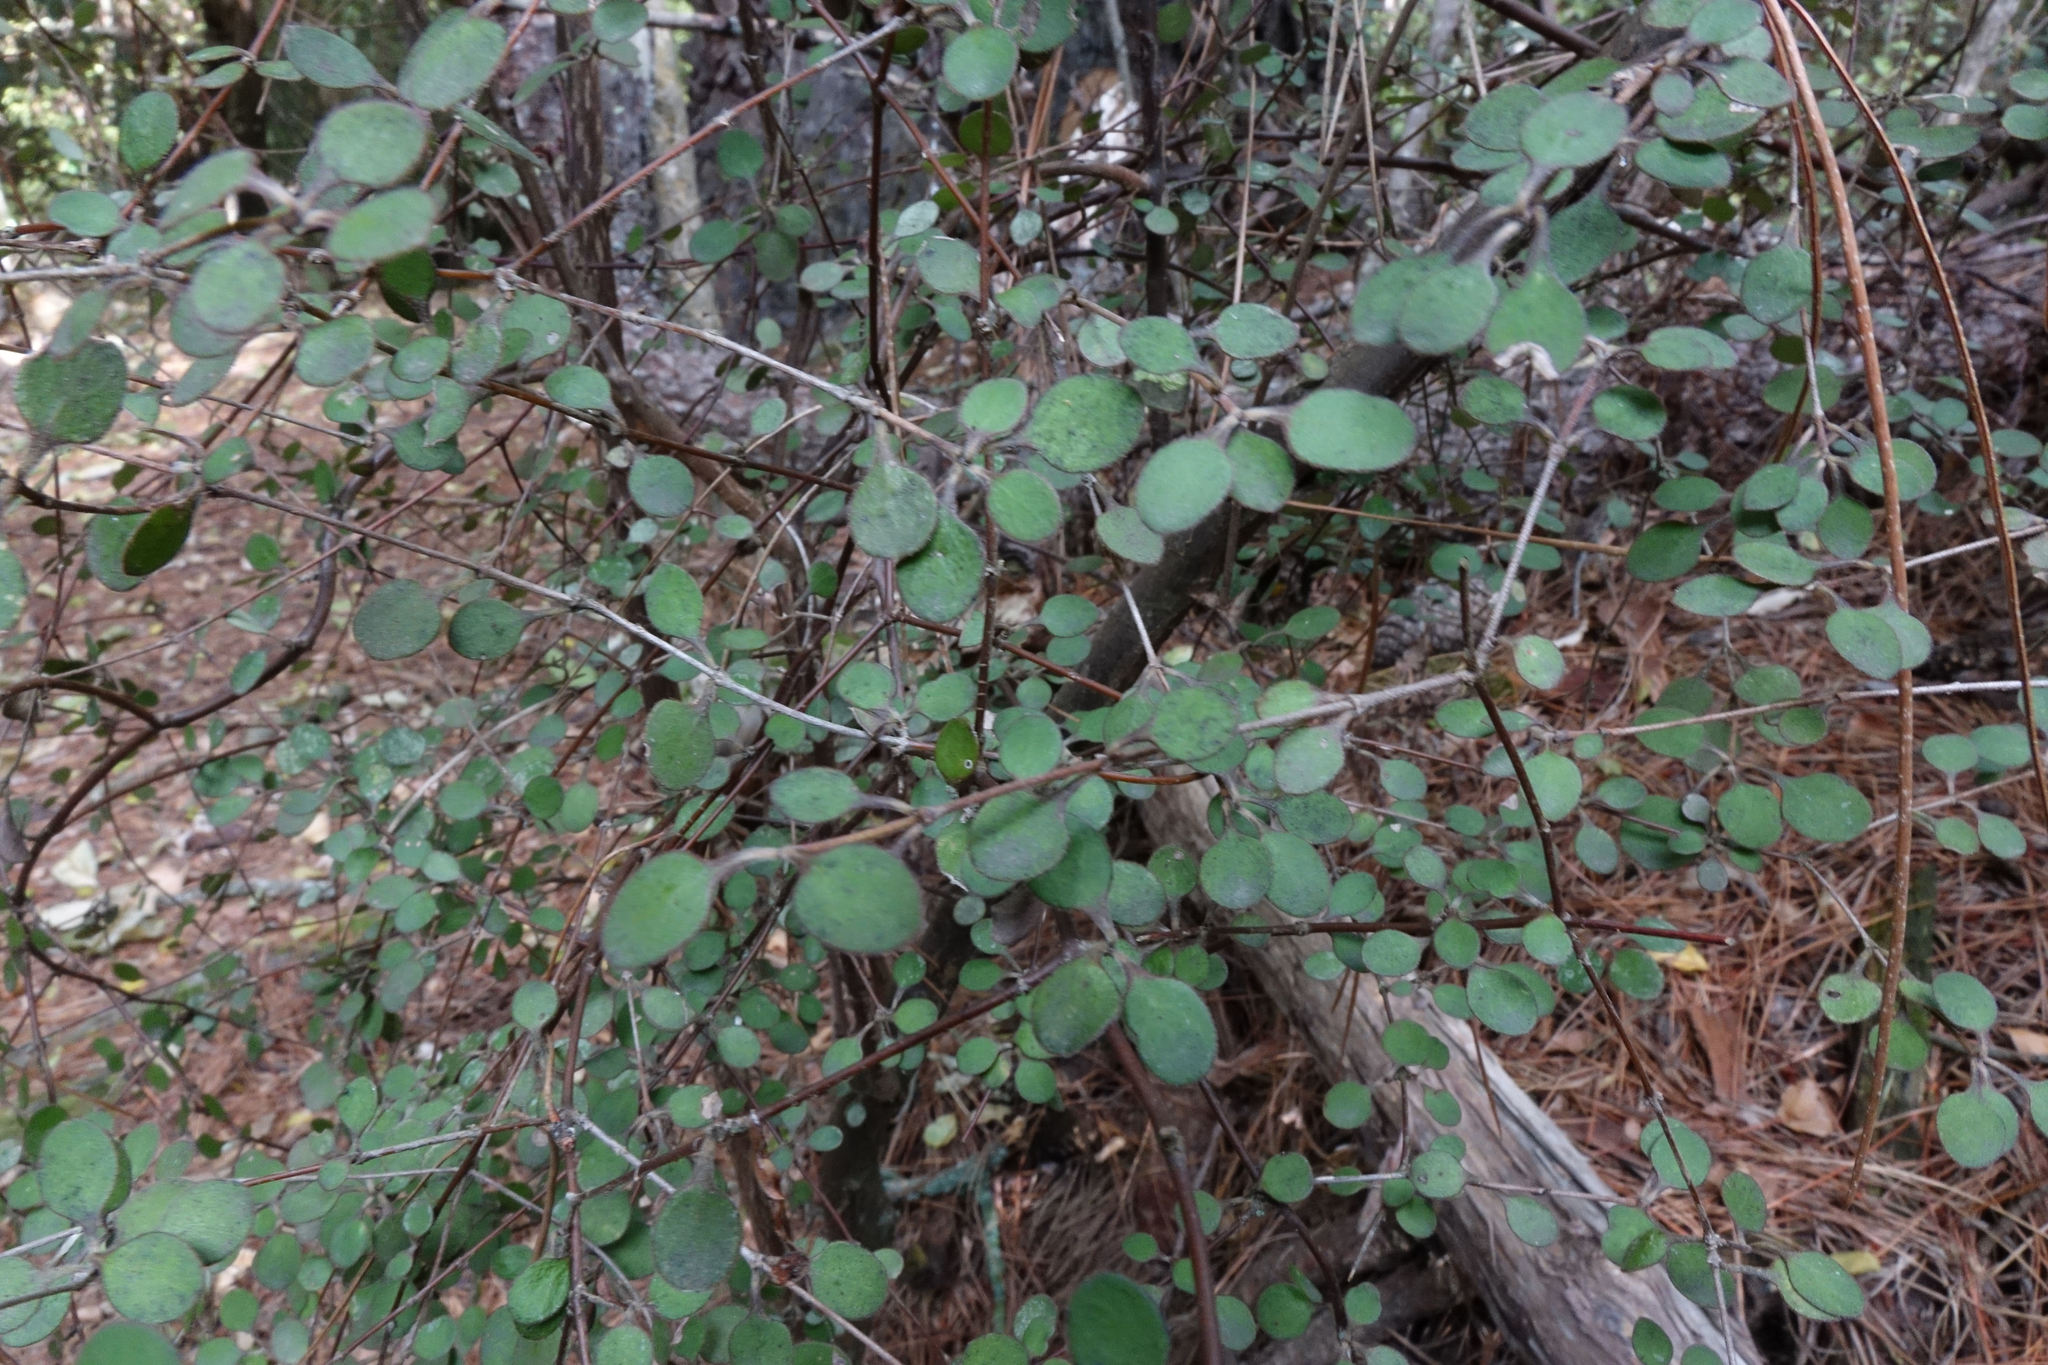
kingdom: Plantae
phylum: Tracheophyta
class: Magnoliopsida
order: Gentianales
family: Rubiaceae
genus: Coprosma
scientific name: Coprosma crassifolia
